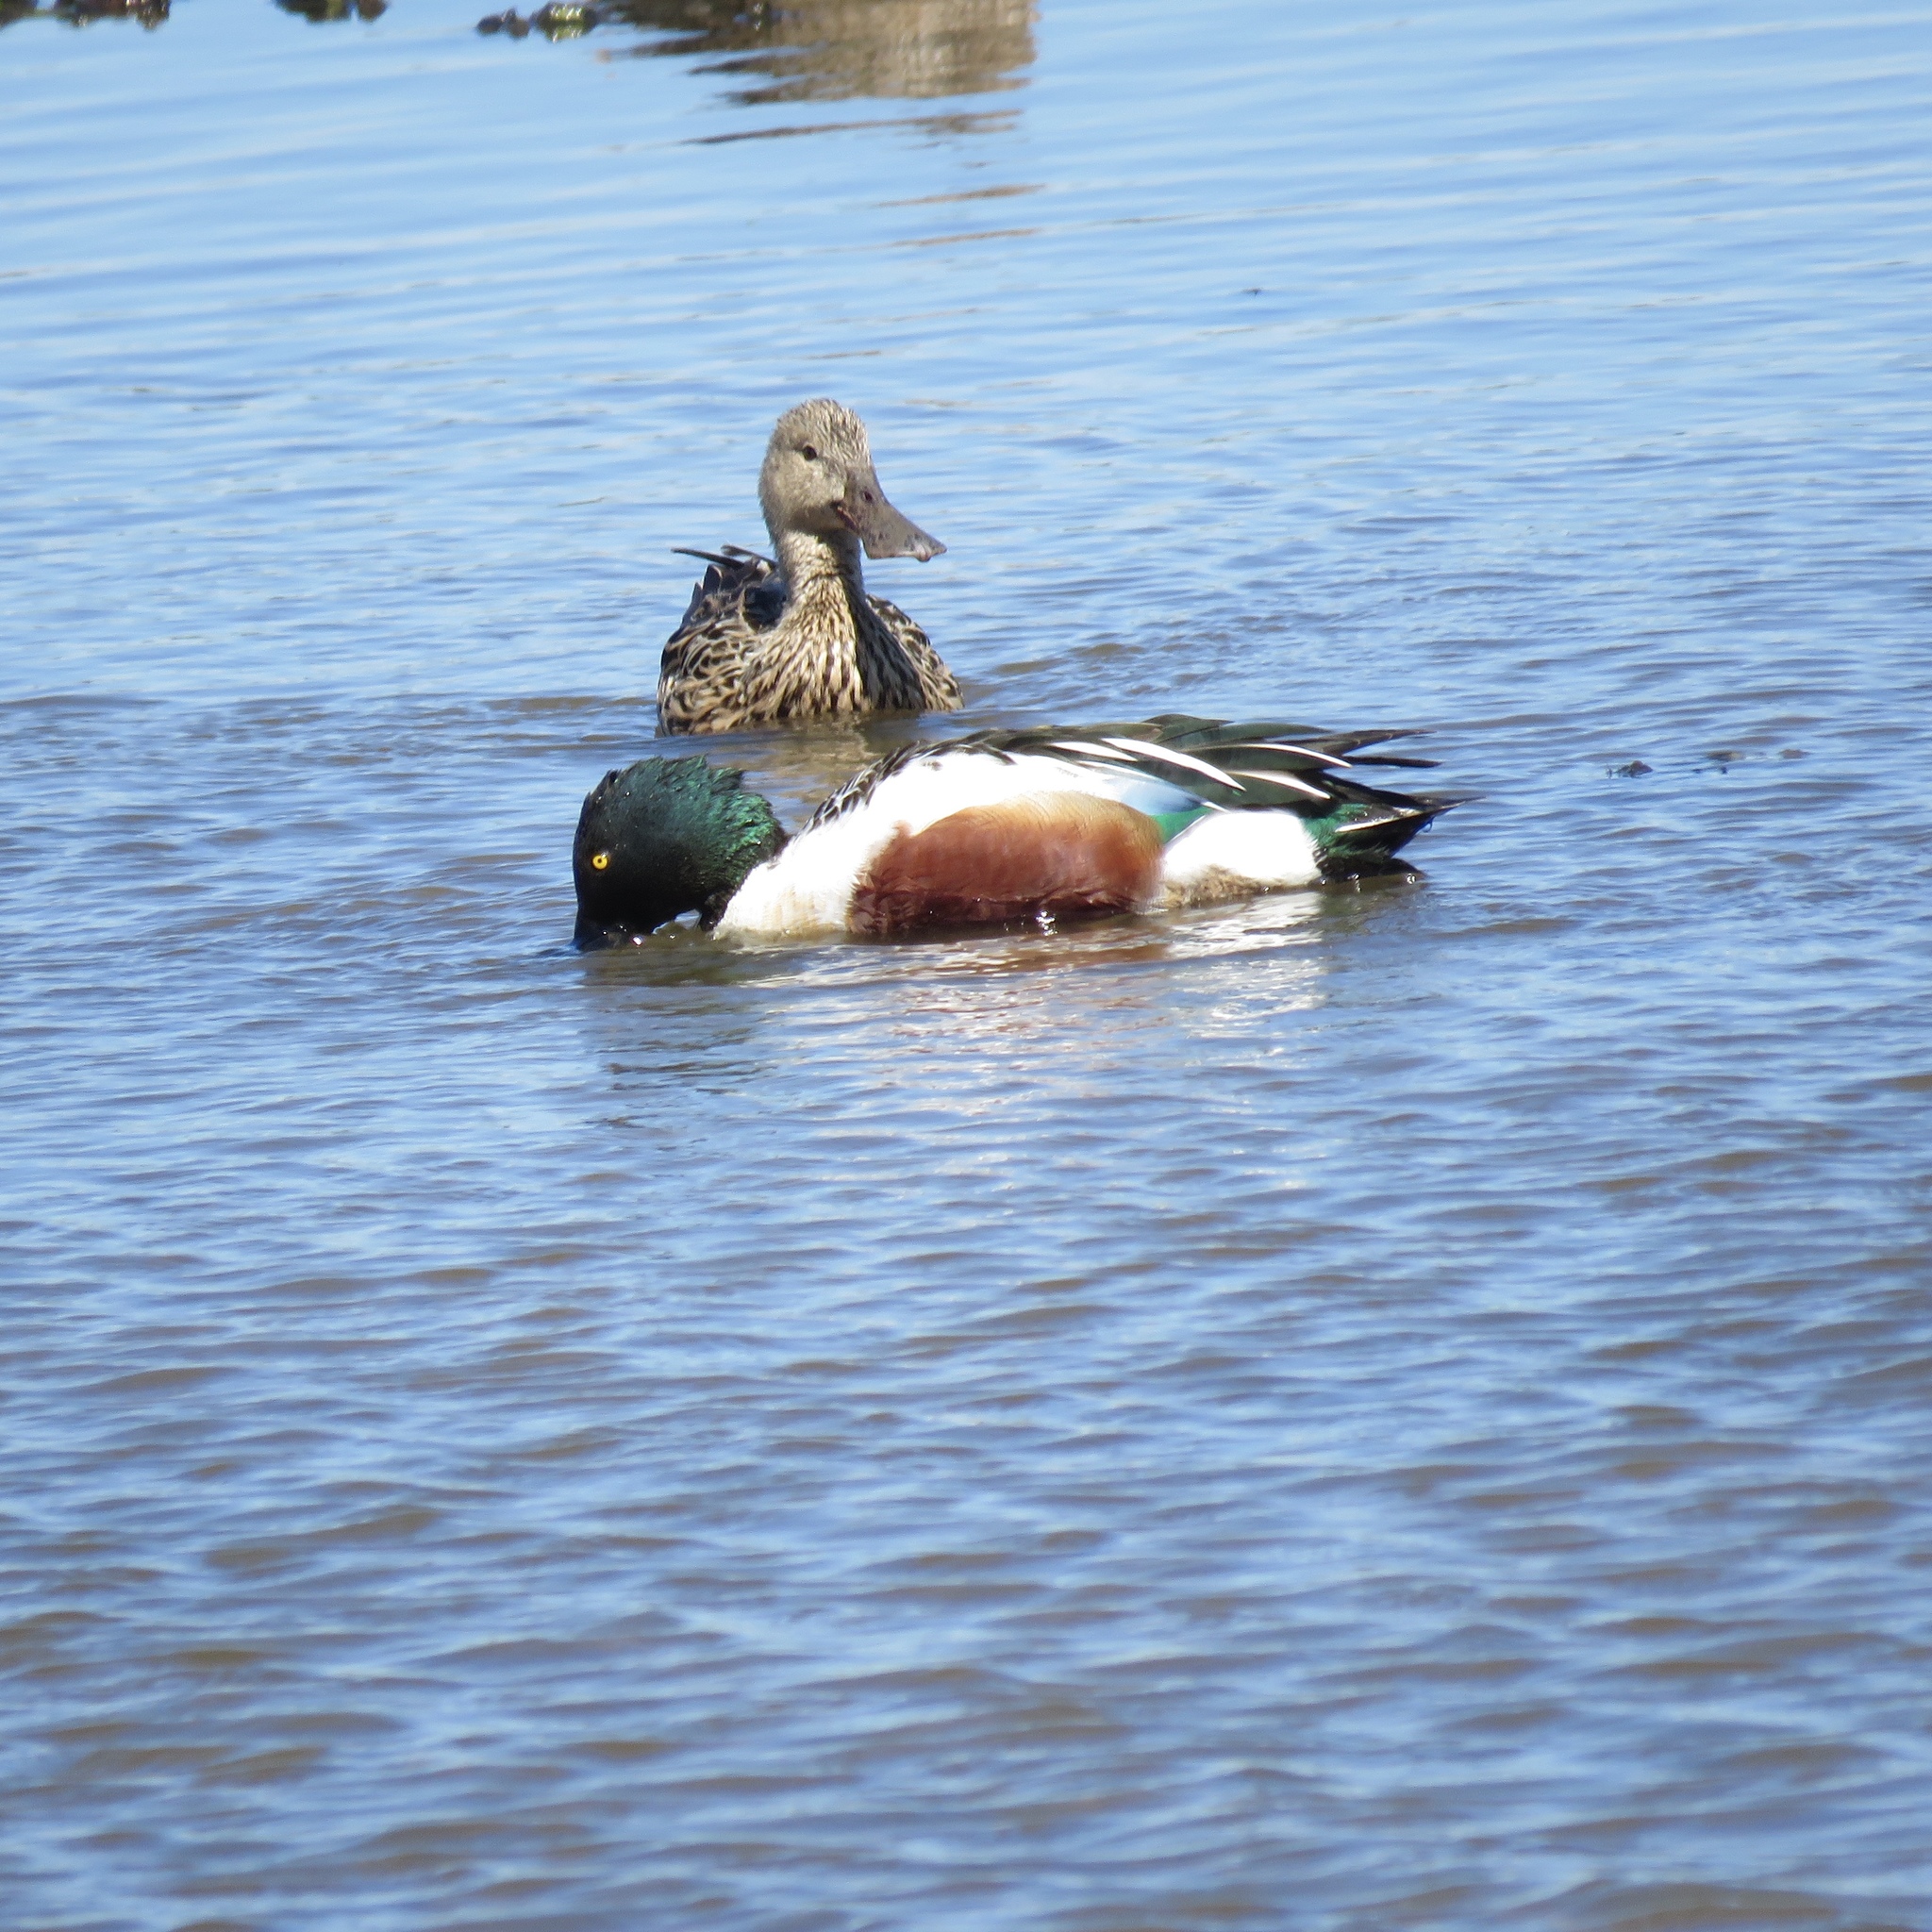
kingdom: Animalia
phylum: Chordata
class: Aves
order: Anseriformes
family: Anatidae
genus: Spatula
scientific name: Spatula clypeata
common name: Northern shoveler
